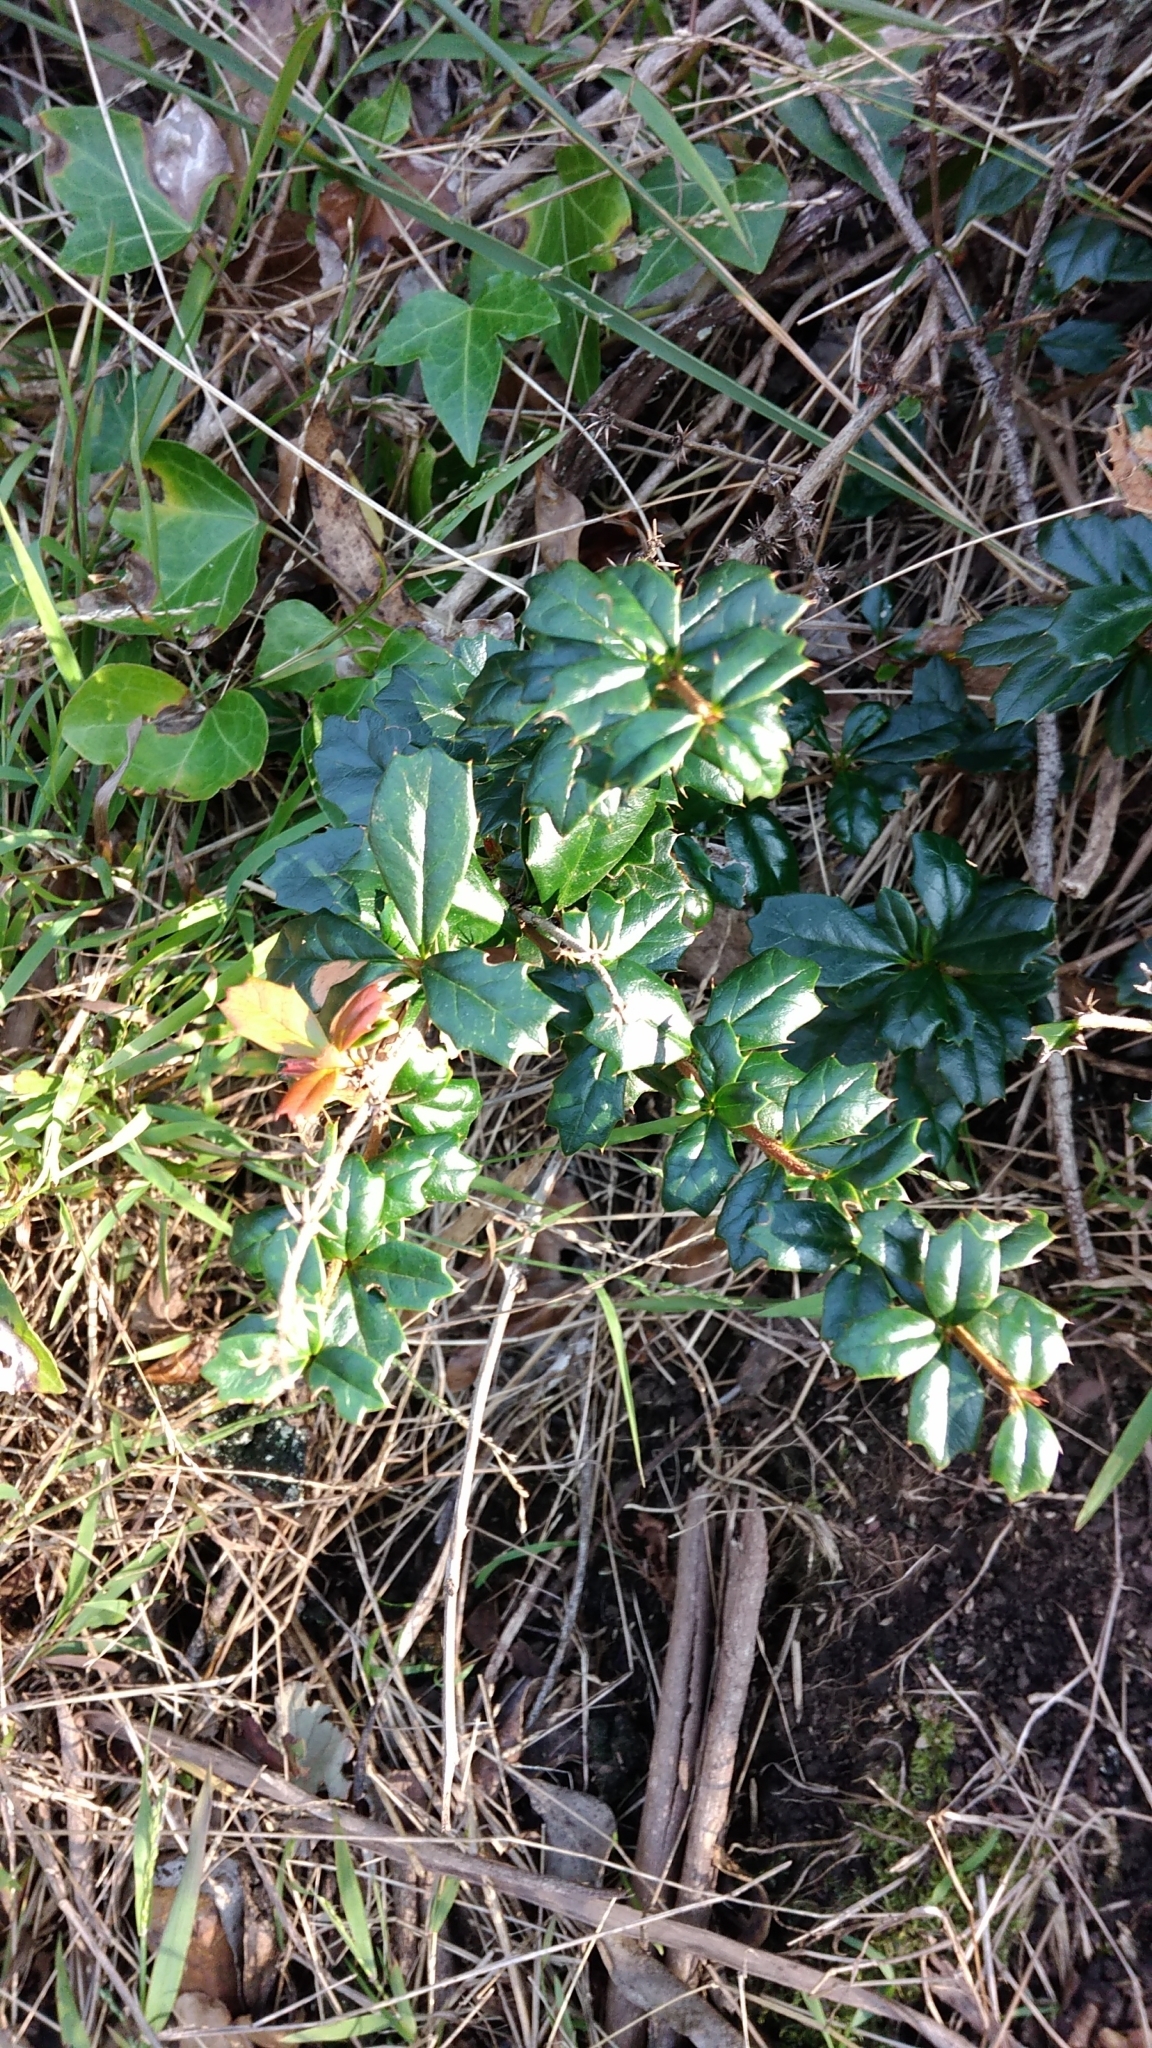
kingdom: Plantae
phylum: Tracheophyta
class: Magnoliopsida
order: Ranunculales
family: Berberidaceae
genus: Berberis
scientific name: Berberis darwinii
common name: Darwin's barberry
